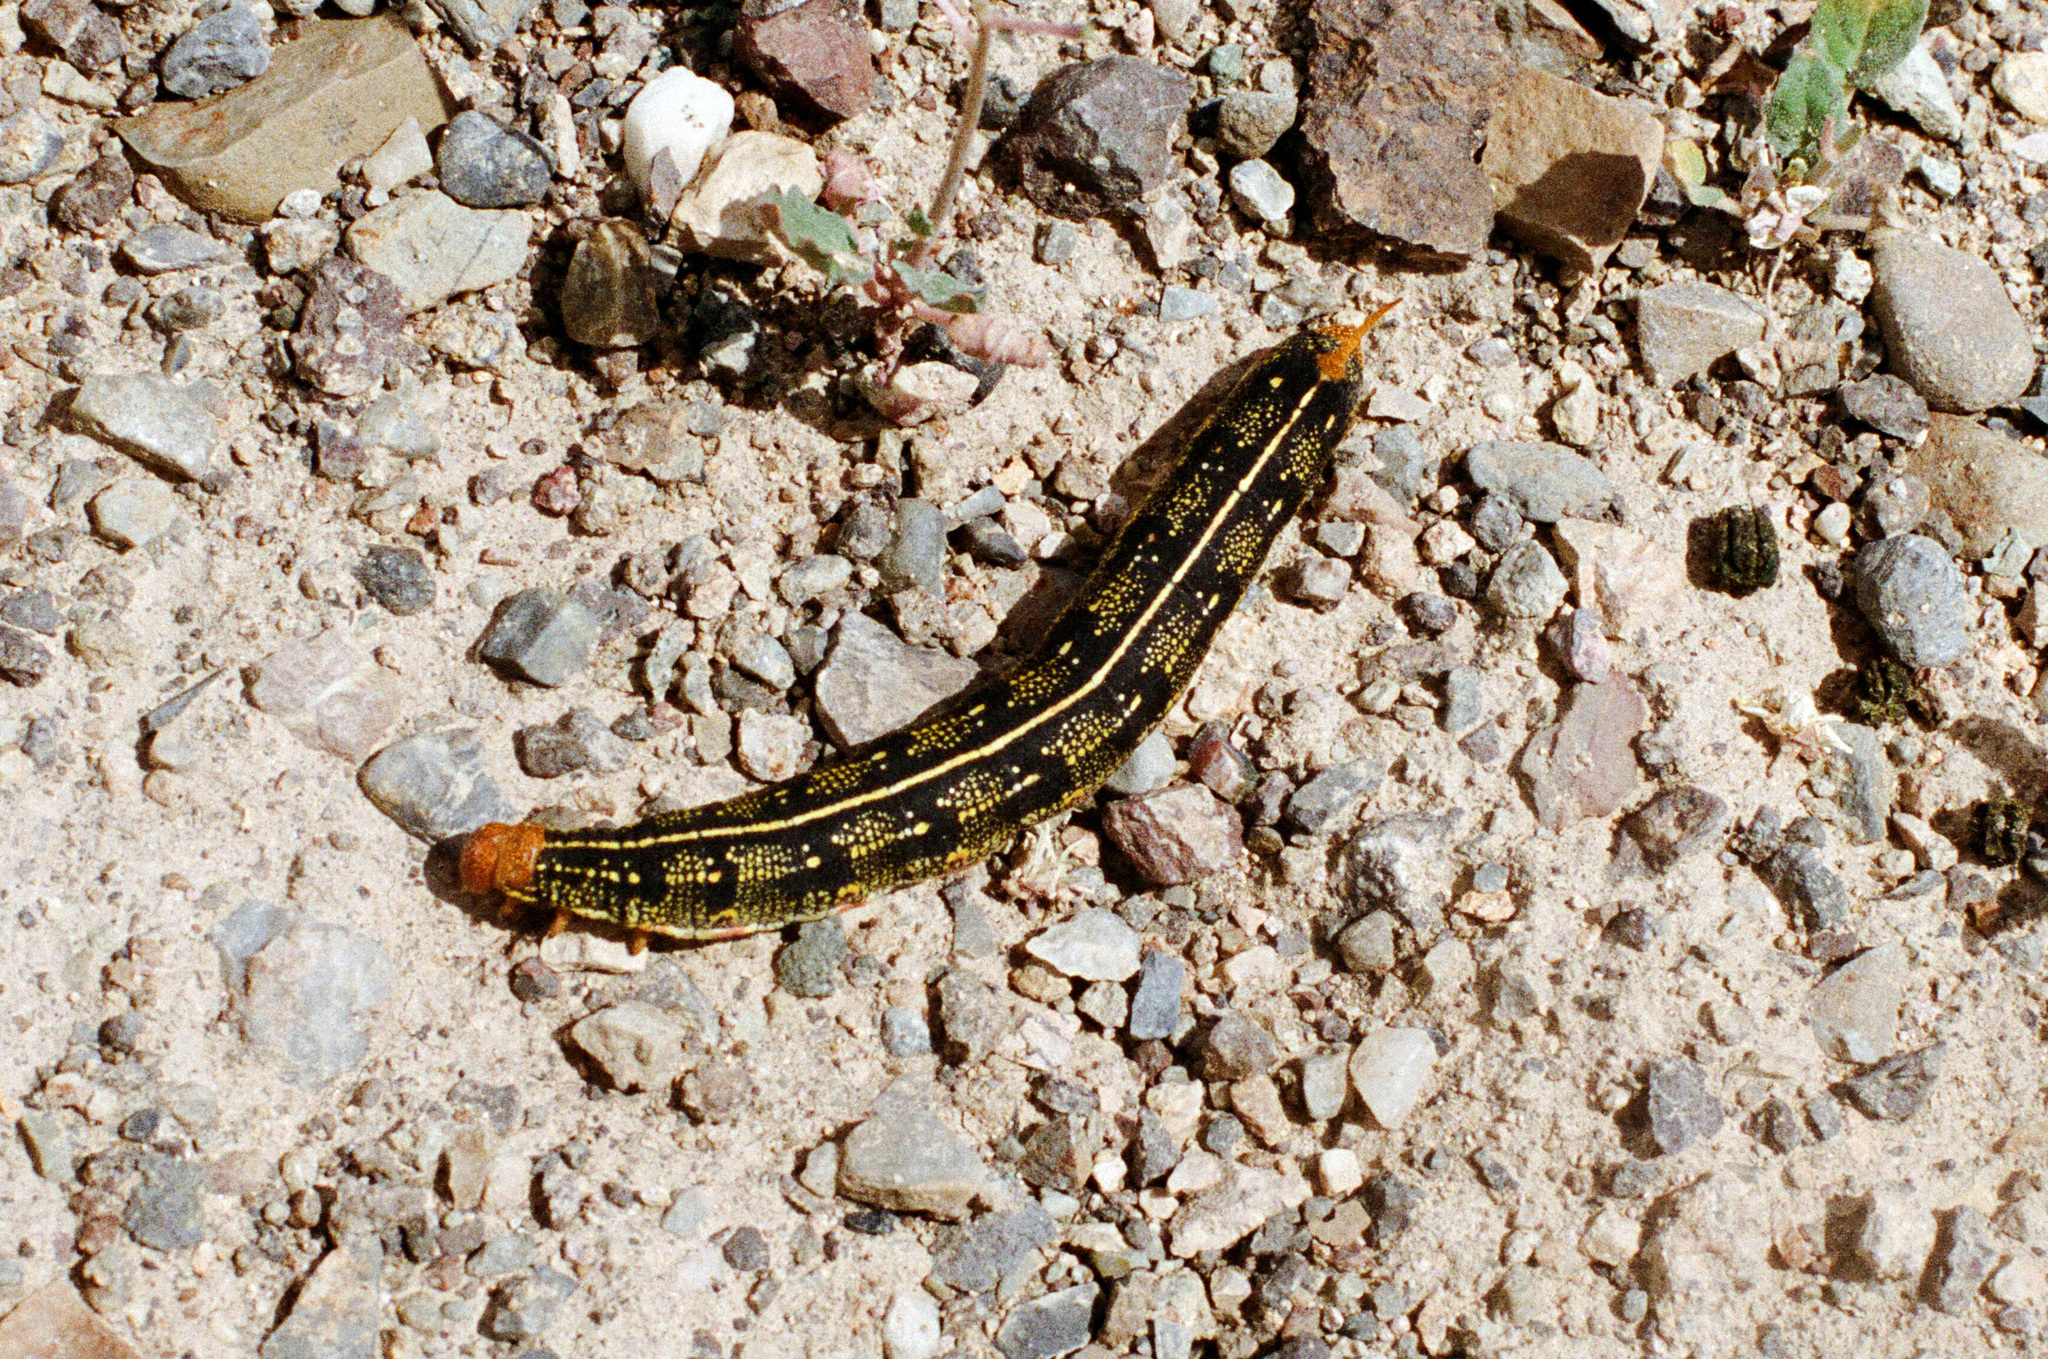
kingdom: Animalia
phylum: Arthropoda
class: Insecta
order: Lepidoptera
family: Sphingidae
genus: Hyles
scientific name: Hyles lineata
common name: White-lined sphinx
